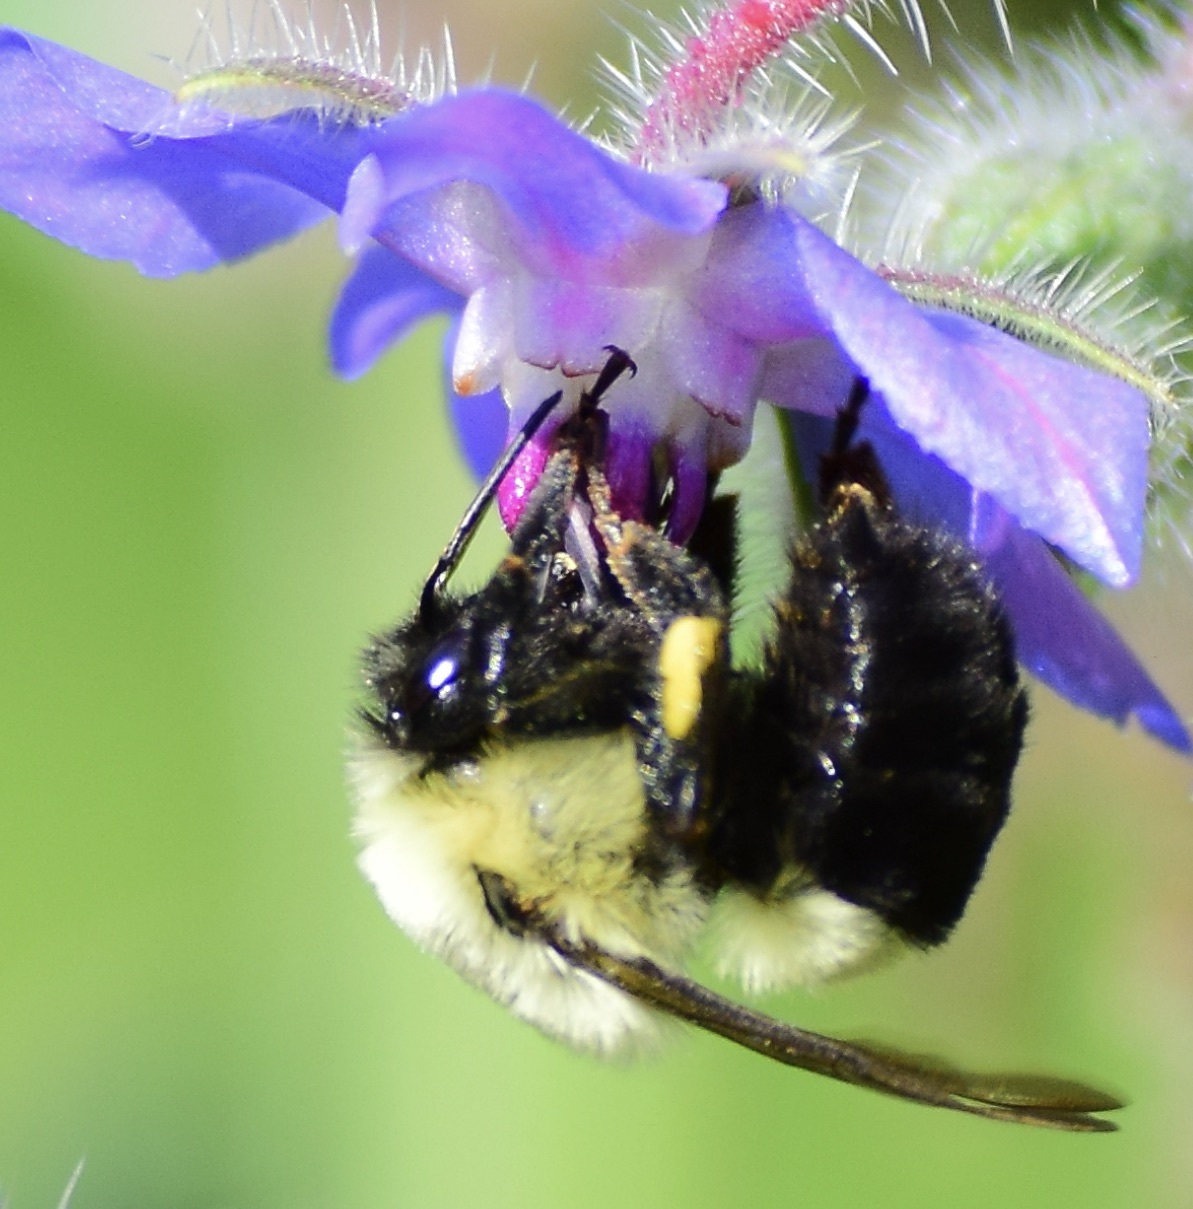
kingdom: Animalia
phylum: Arthropoda
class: Insecta
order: Hymenoptera
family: Apidae
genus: Bombus
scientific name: Bombus impatiens
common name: Common eastern bumble bee
